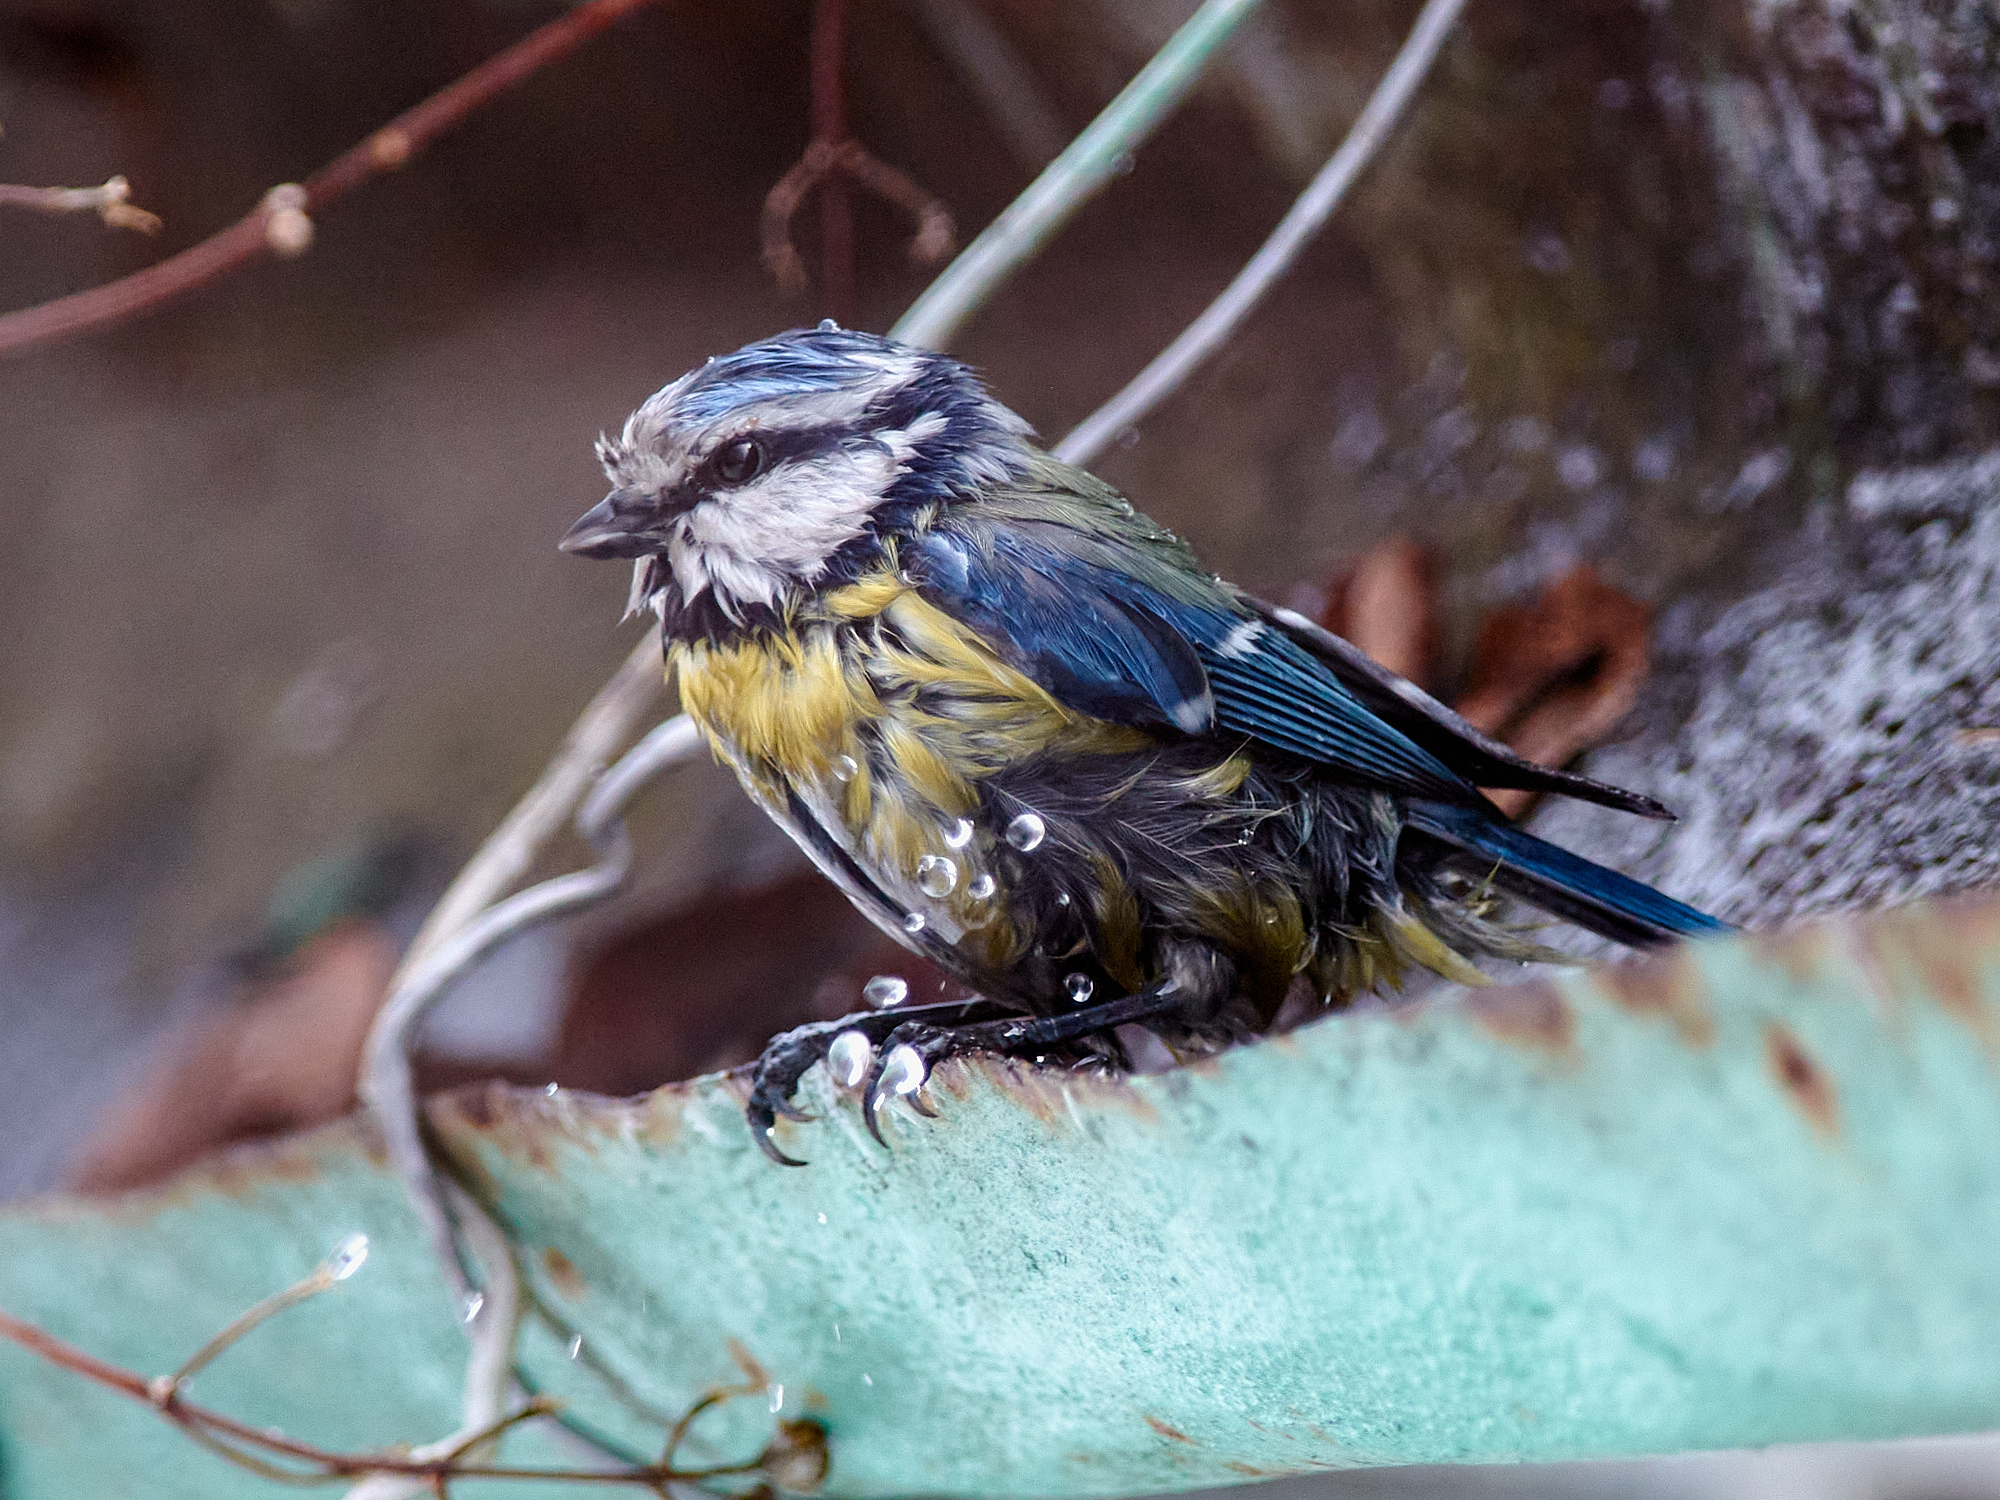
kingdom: Animalia
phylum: Chordata
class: Aves
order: Passeriformes
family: Paridae
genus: Cyanistes
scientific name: Cyanistes caeruleus
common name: Eurasian blue tit
